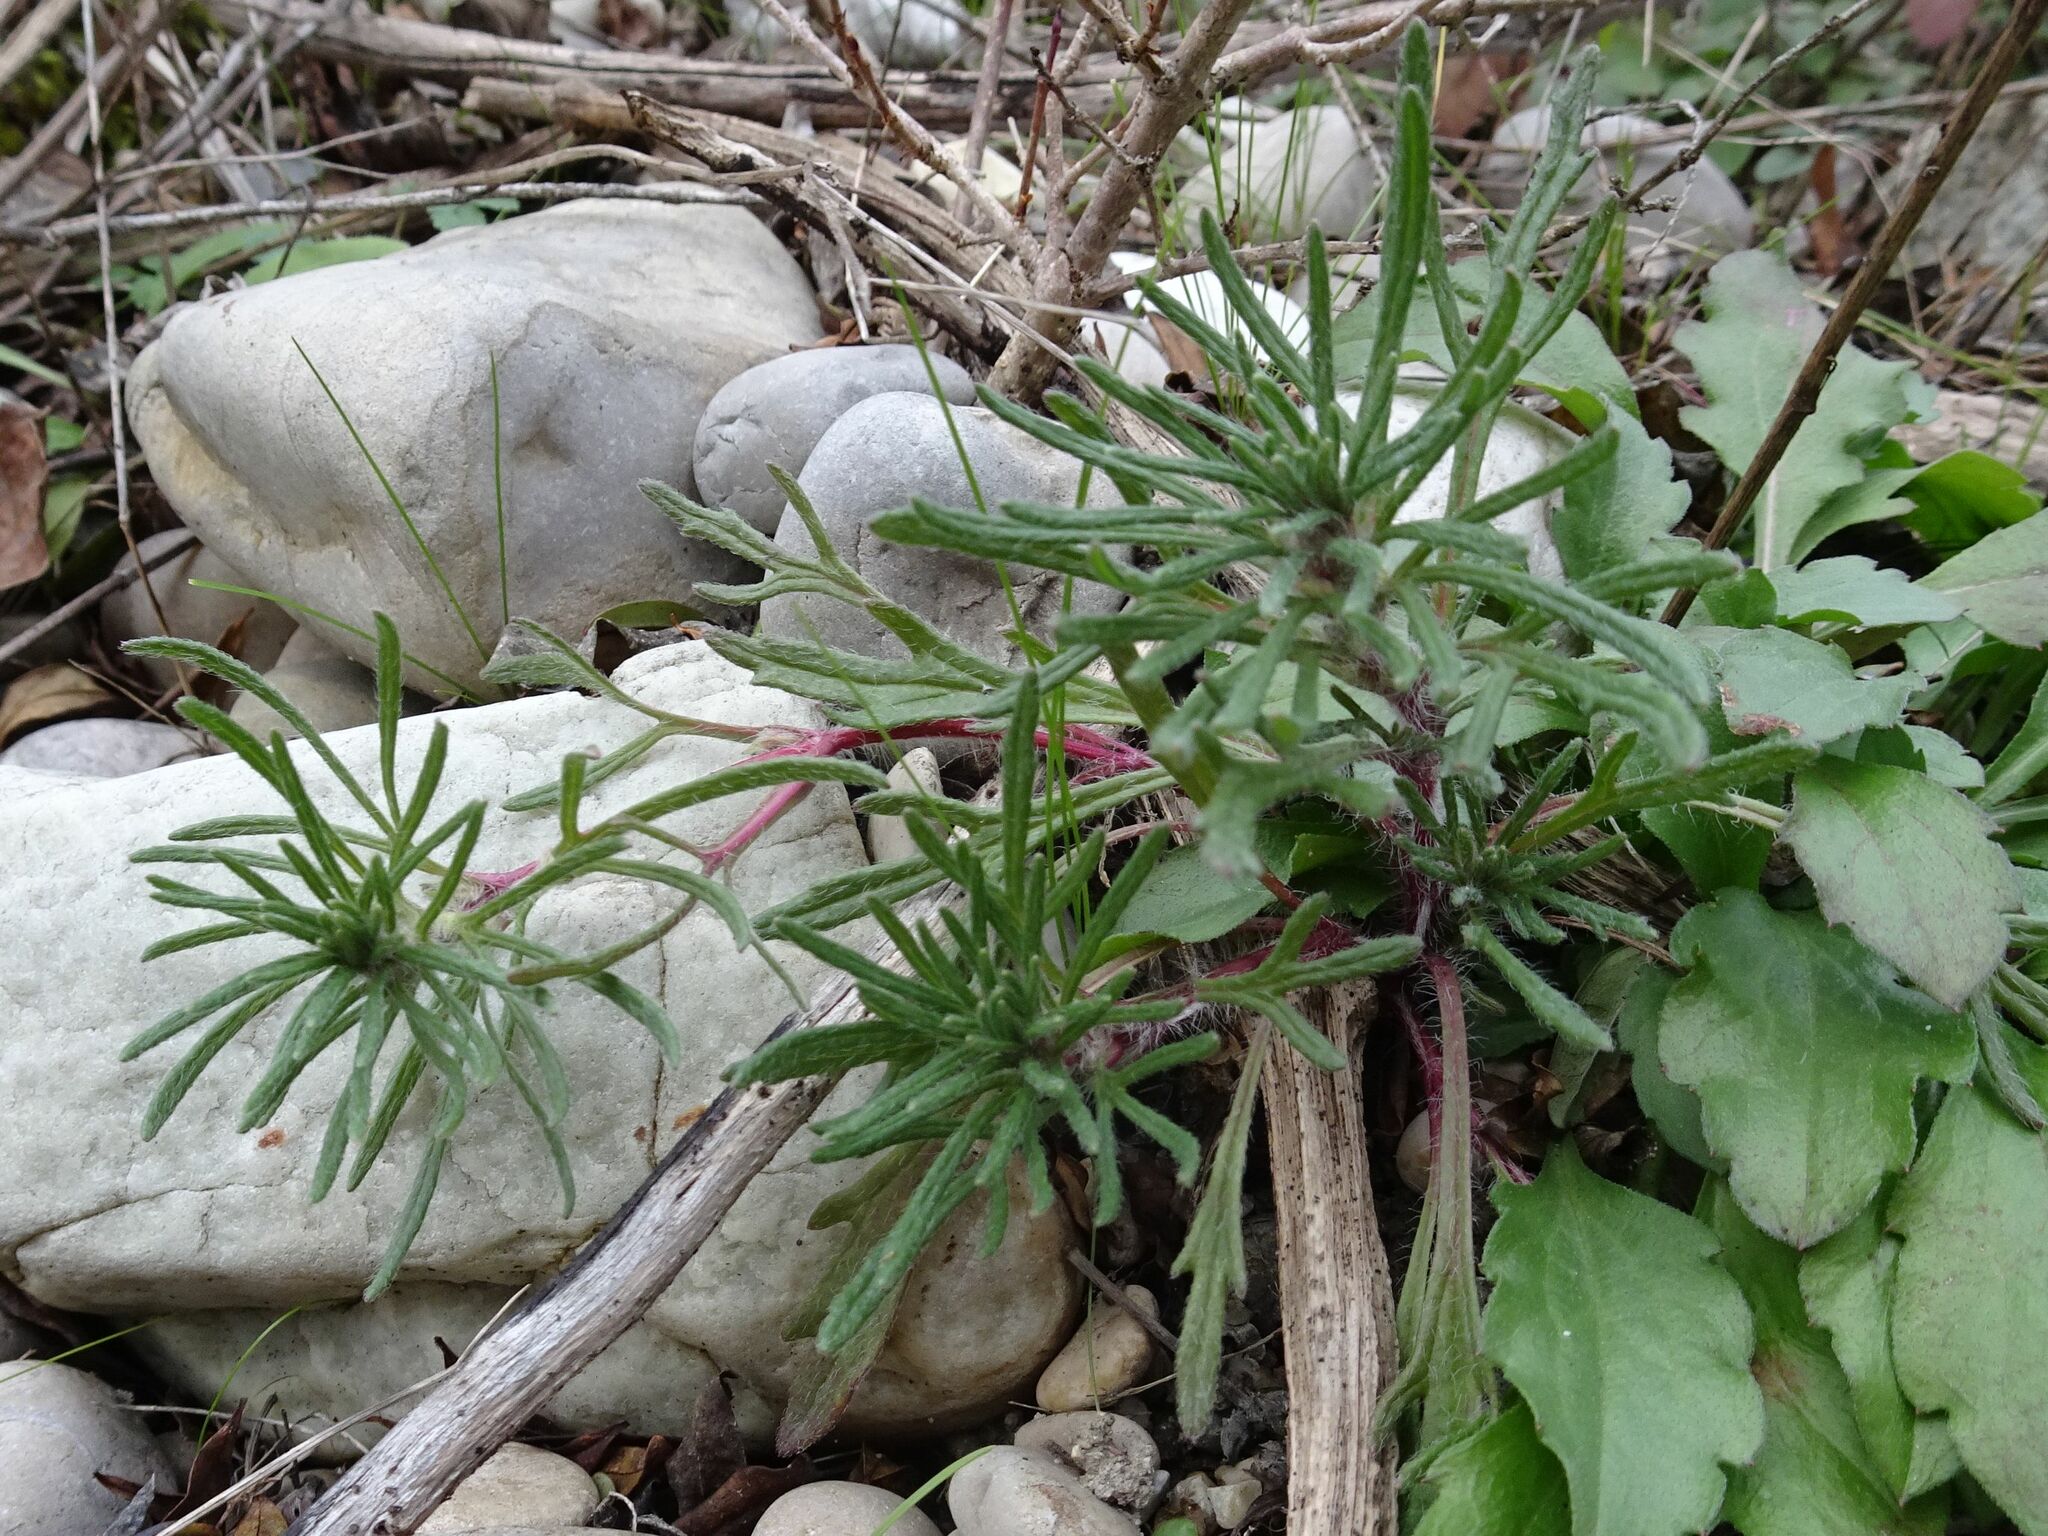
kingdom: Plantae
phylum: Tracheophyta
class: Magnoliopsida
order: Lamiales
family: Lamiaceae
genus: Ajuga
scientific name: Ajuga chamaepitys
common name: Ground-pine
